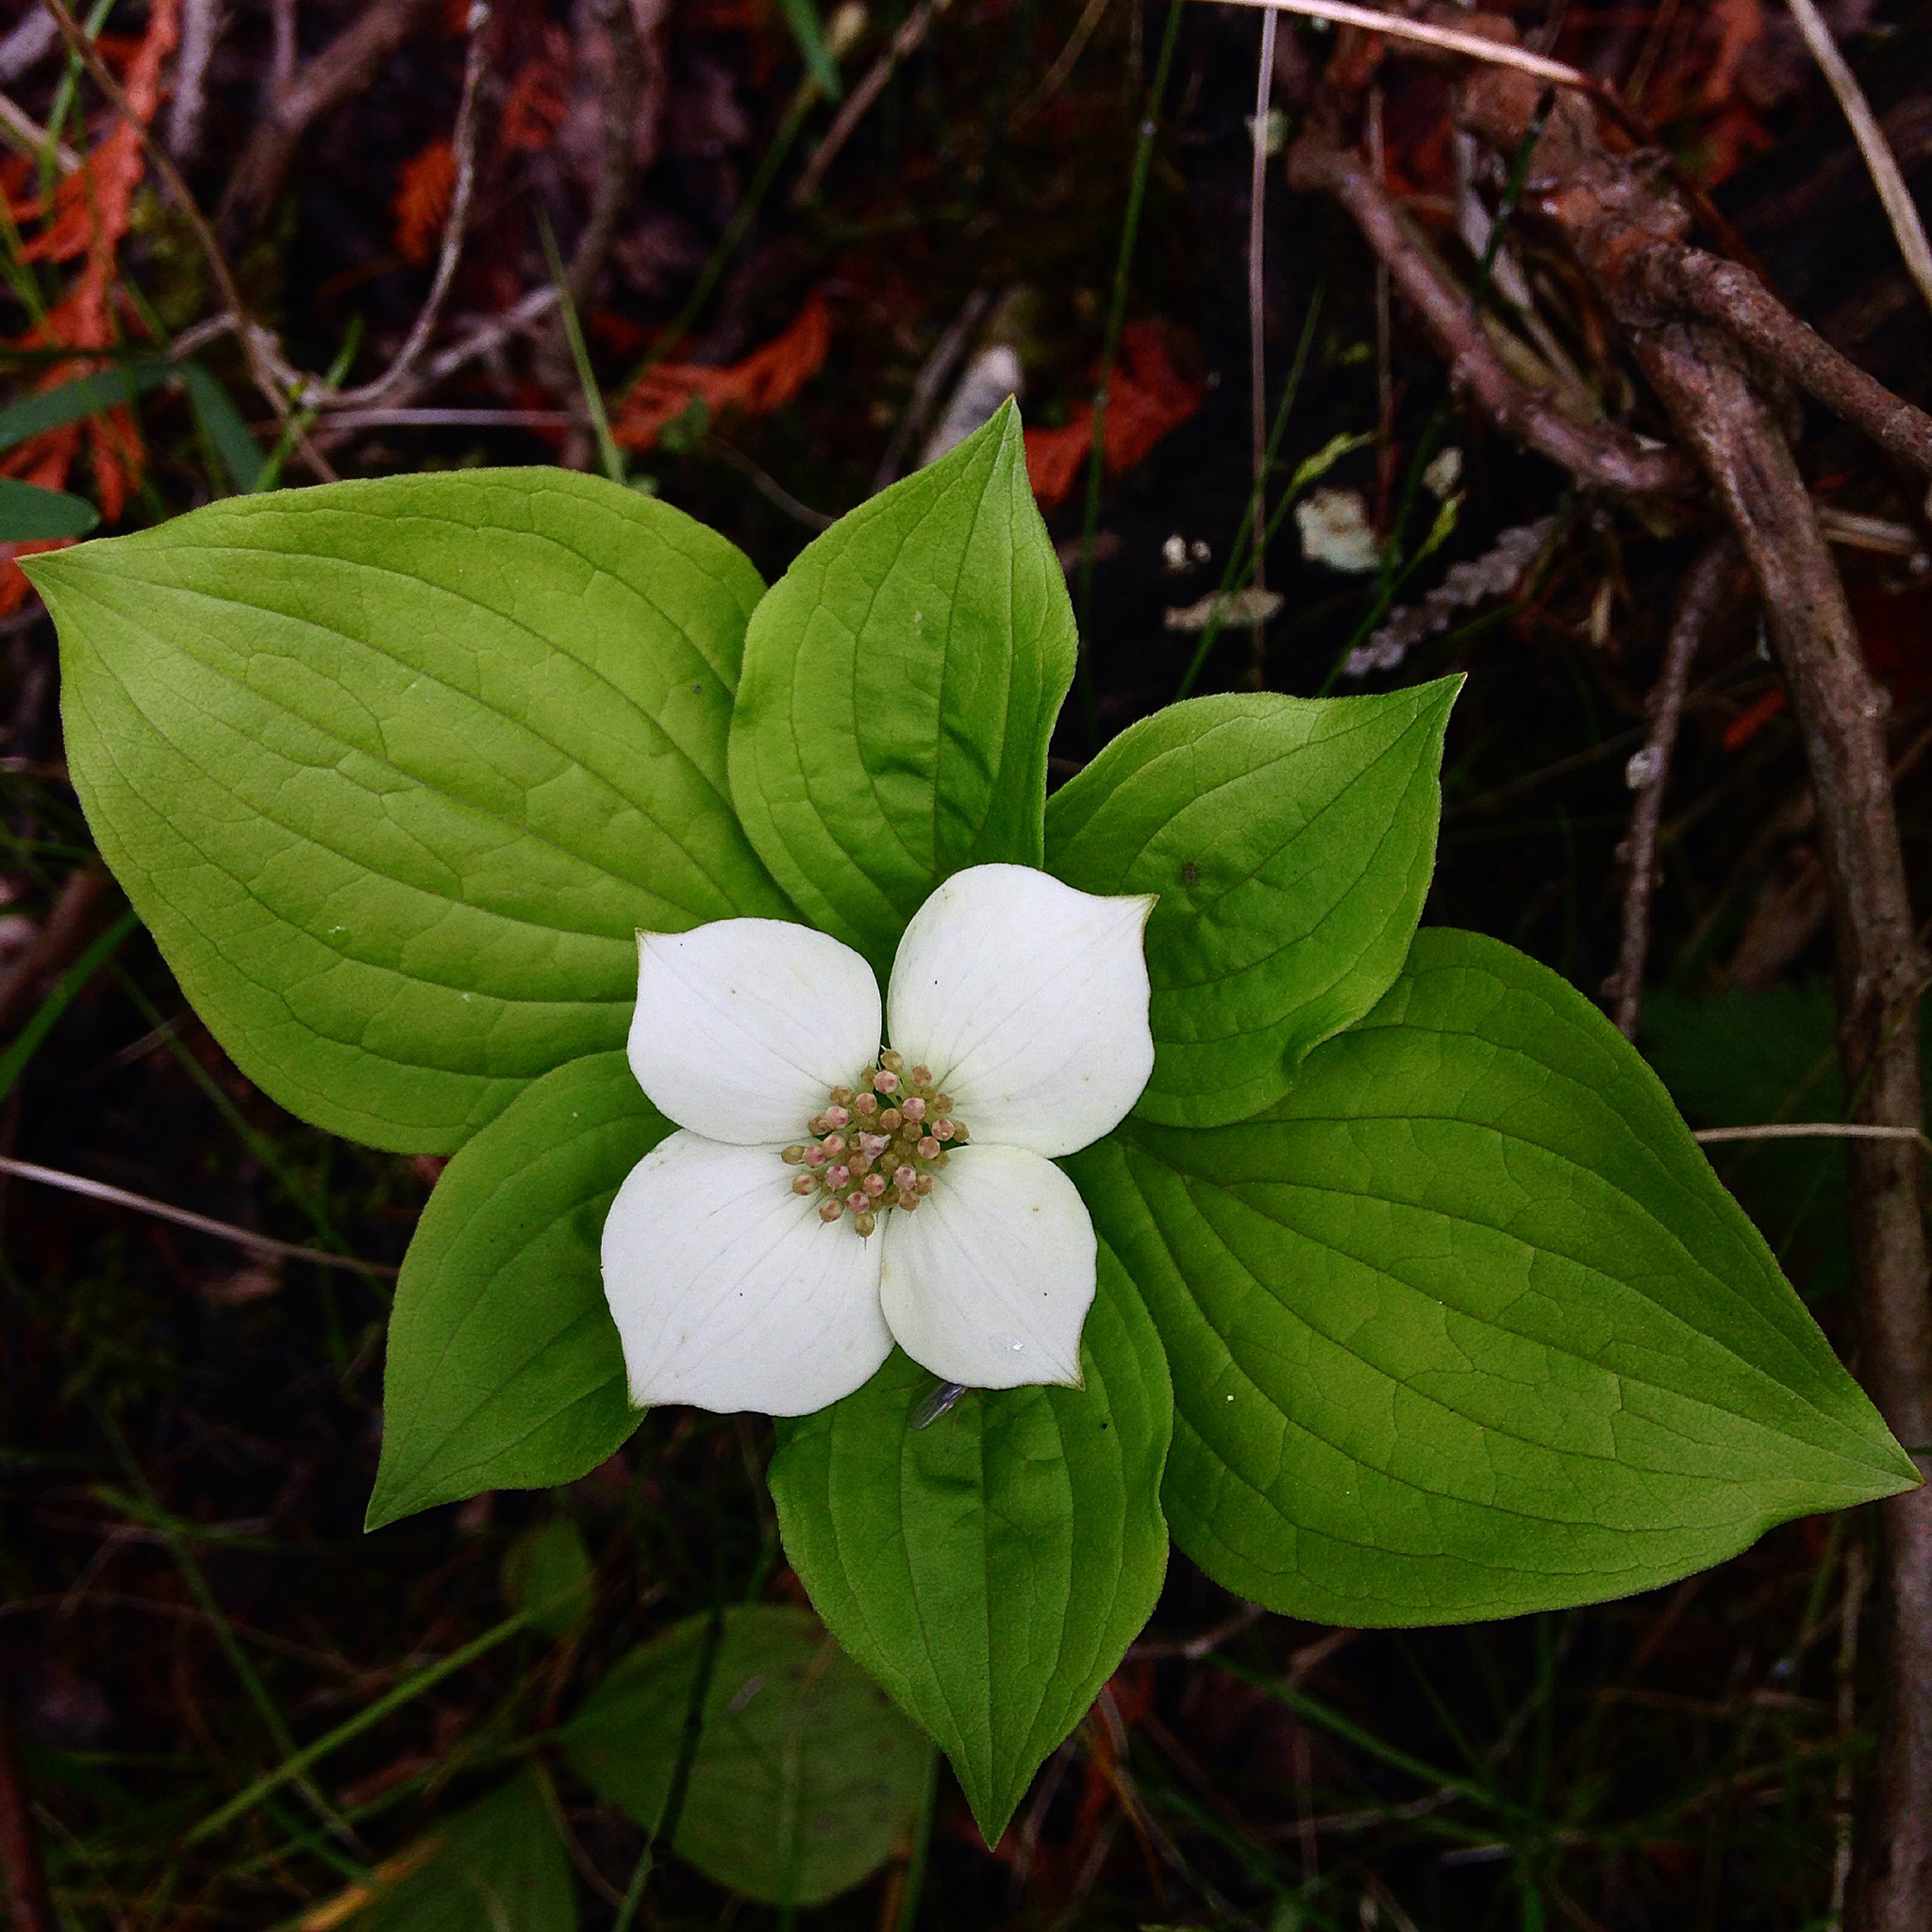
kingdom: Plantae
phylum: Tracheophyta
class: Magnoliopsida
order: Cornales
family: Cornaceae
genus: Cornus
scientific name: Cornus canadensis
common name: Creeping dogwood
